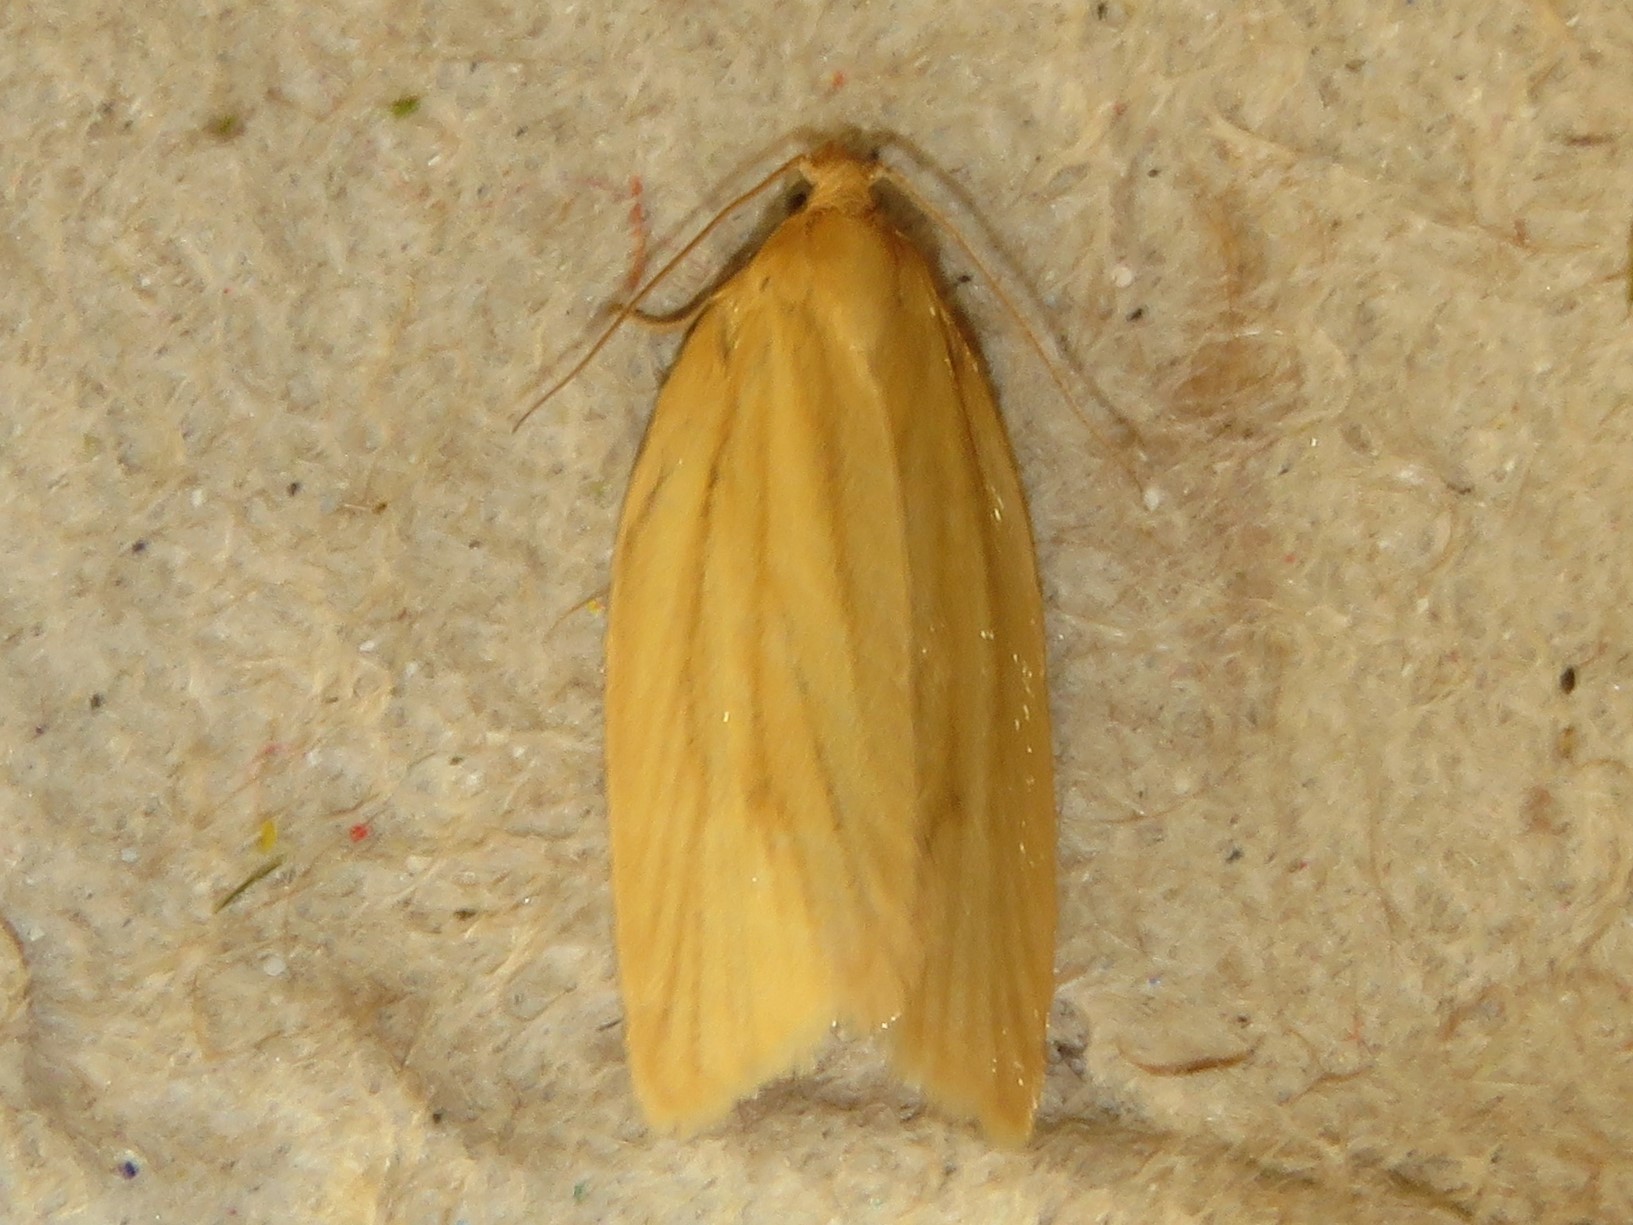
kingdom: Animalia
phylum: Arthropoda
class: Insecta
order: Lepidoptera
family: Tortricidae
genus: Clepsis
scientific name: Clepsis clemensiana
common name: Clemens' clepsis moth
